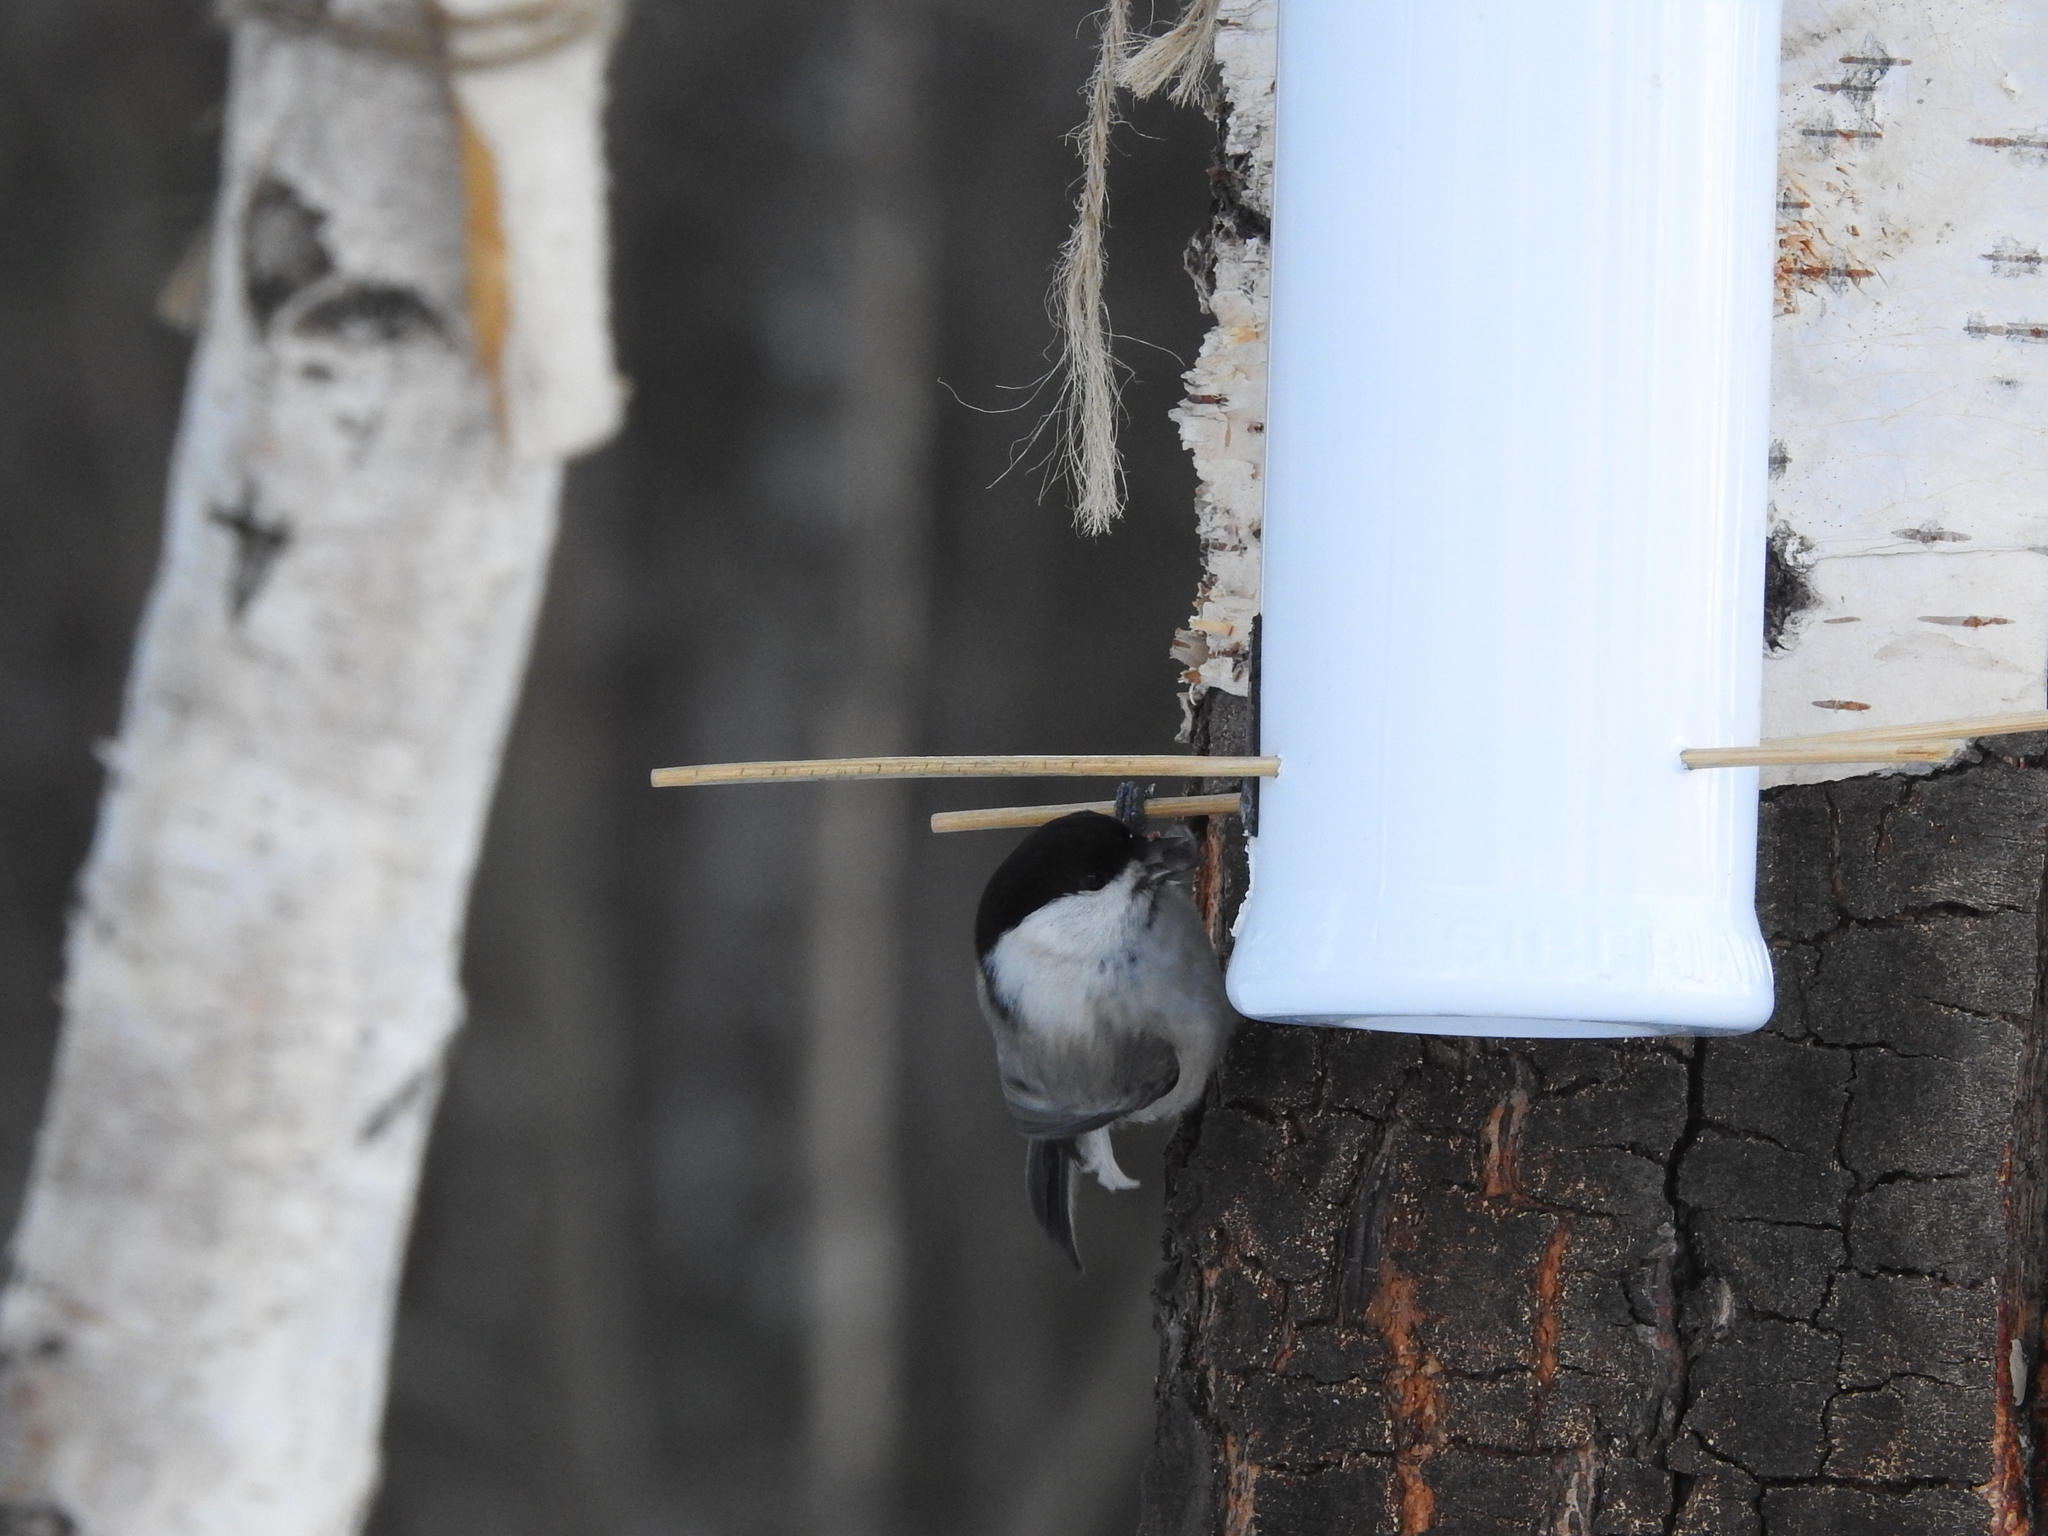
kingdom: Animalia
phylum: Chordata
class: Aves
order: Passeriformes
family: Paridae
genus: Poecile
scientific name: Poecile montanus
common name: Willow tit
